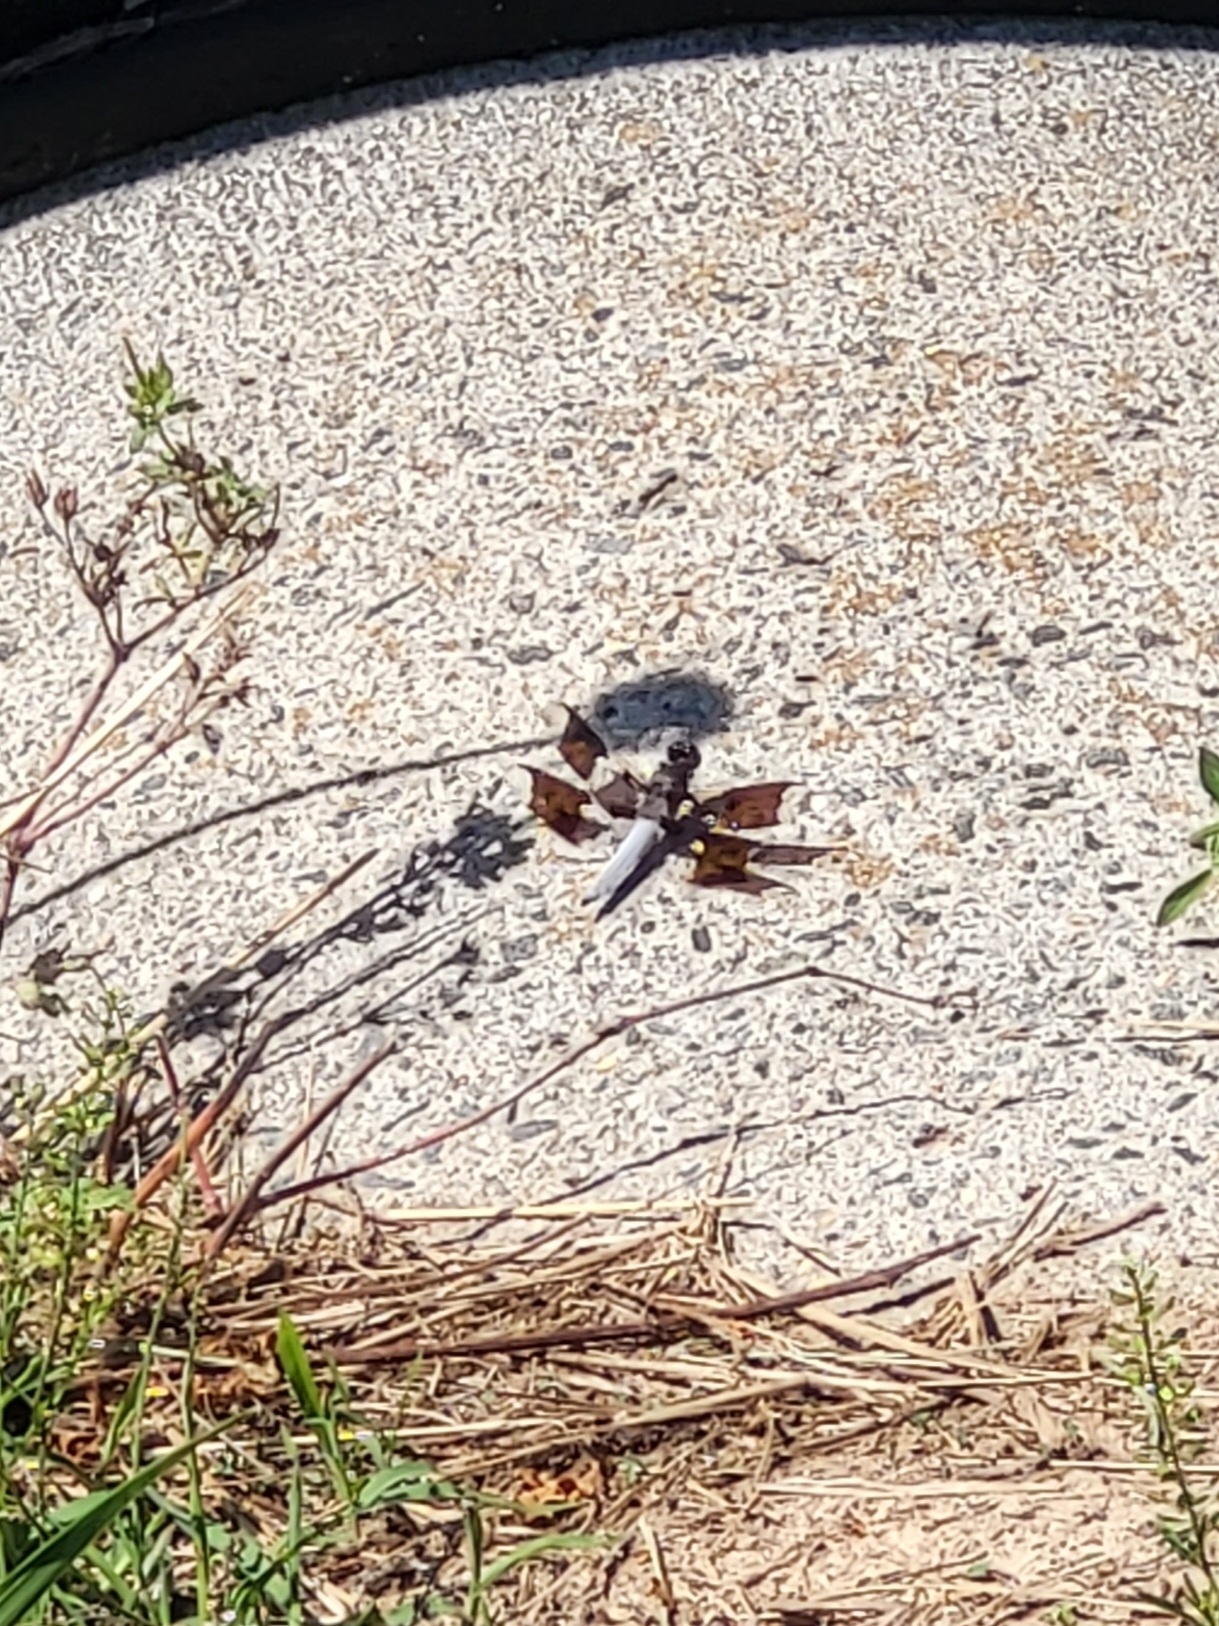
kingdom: Animalia
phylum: Arthropoda
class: Insecta
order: Odonata
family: Libellulidae
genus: Plathemis
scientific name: Plathemis lydia
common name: Common whitetail
